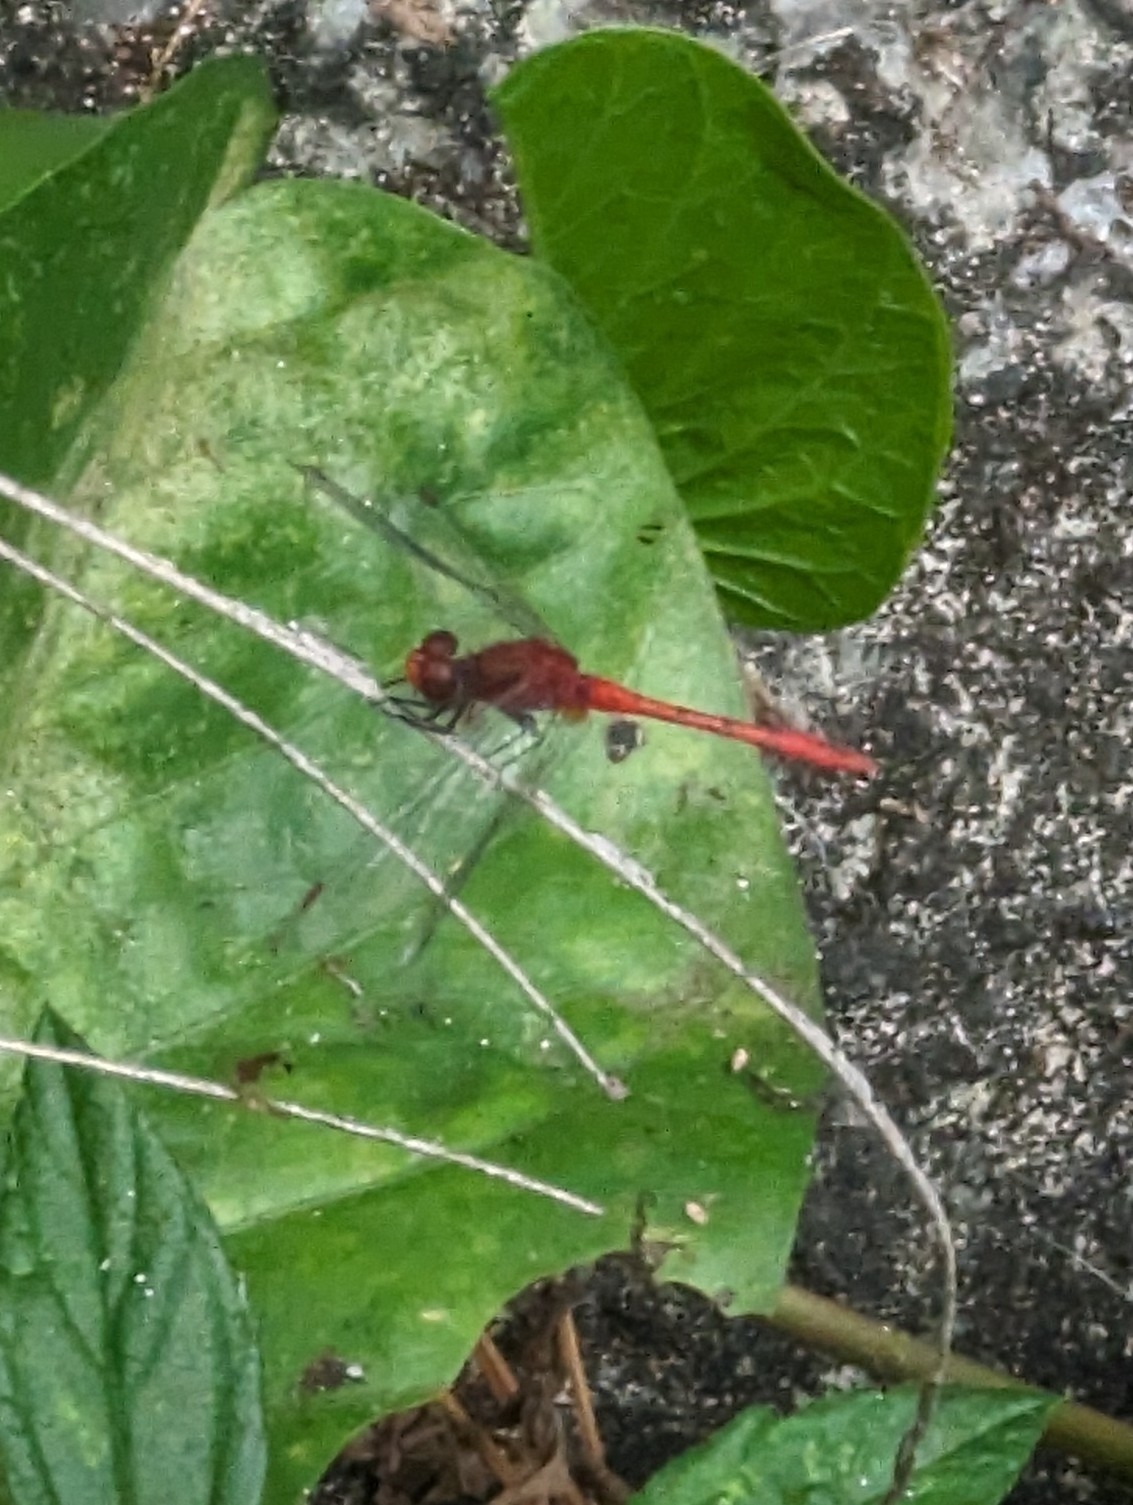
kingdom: Animalia
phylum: Arthropoda
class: Insecta
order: Odonata
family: Libellulidae
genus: Diplacodes
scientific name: Diplacodes bipunctata
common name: Red percher dragonfly
